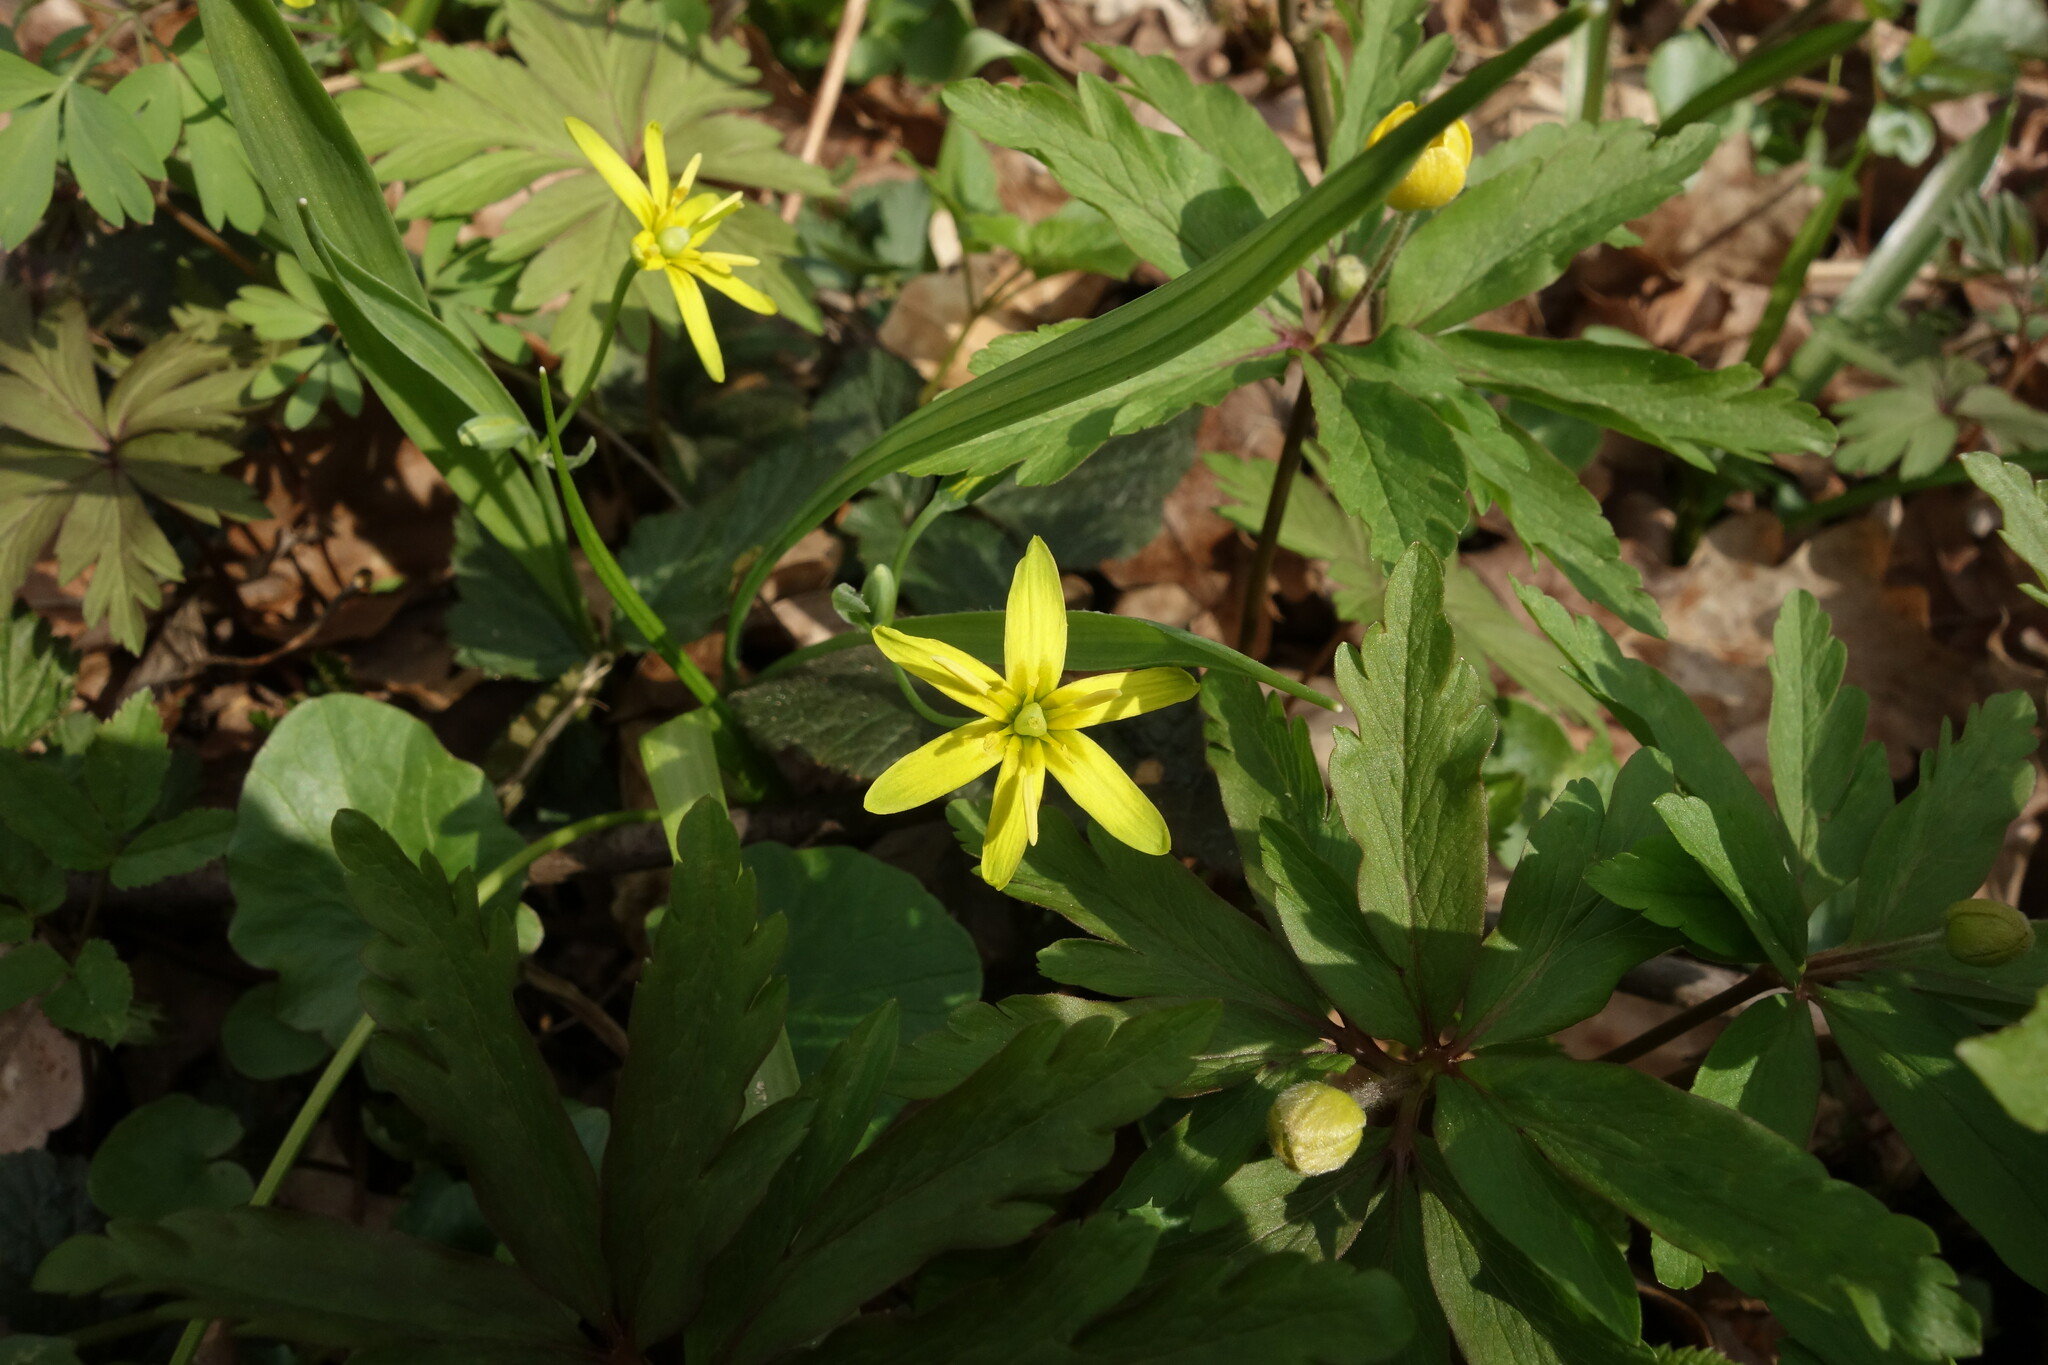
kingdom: Plantae
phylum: Tracheophyta
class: Liliopsida
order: Liliales
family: Liliaceae
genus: Gagea
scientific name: Gagea lutea
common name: Yellow star-of-bethlehem
